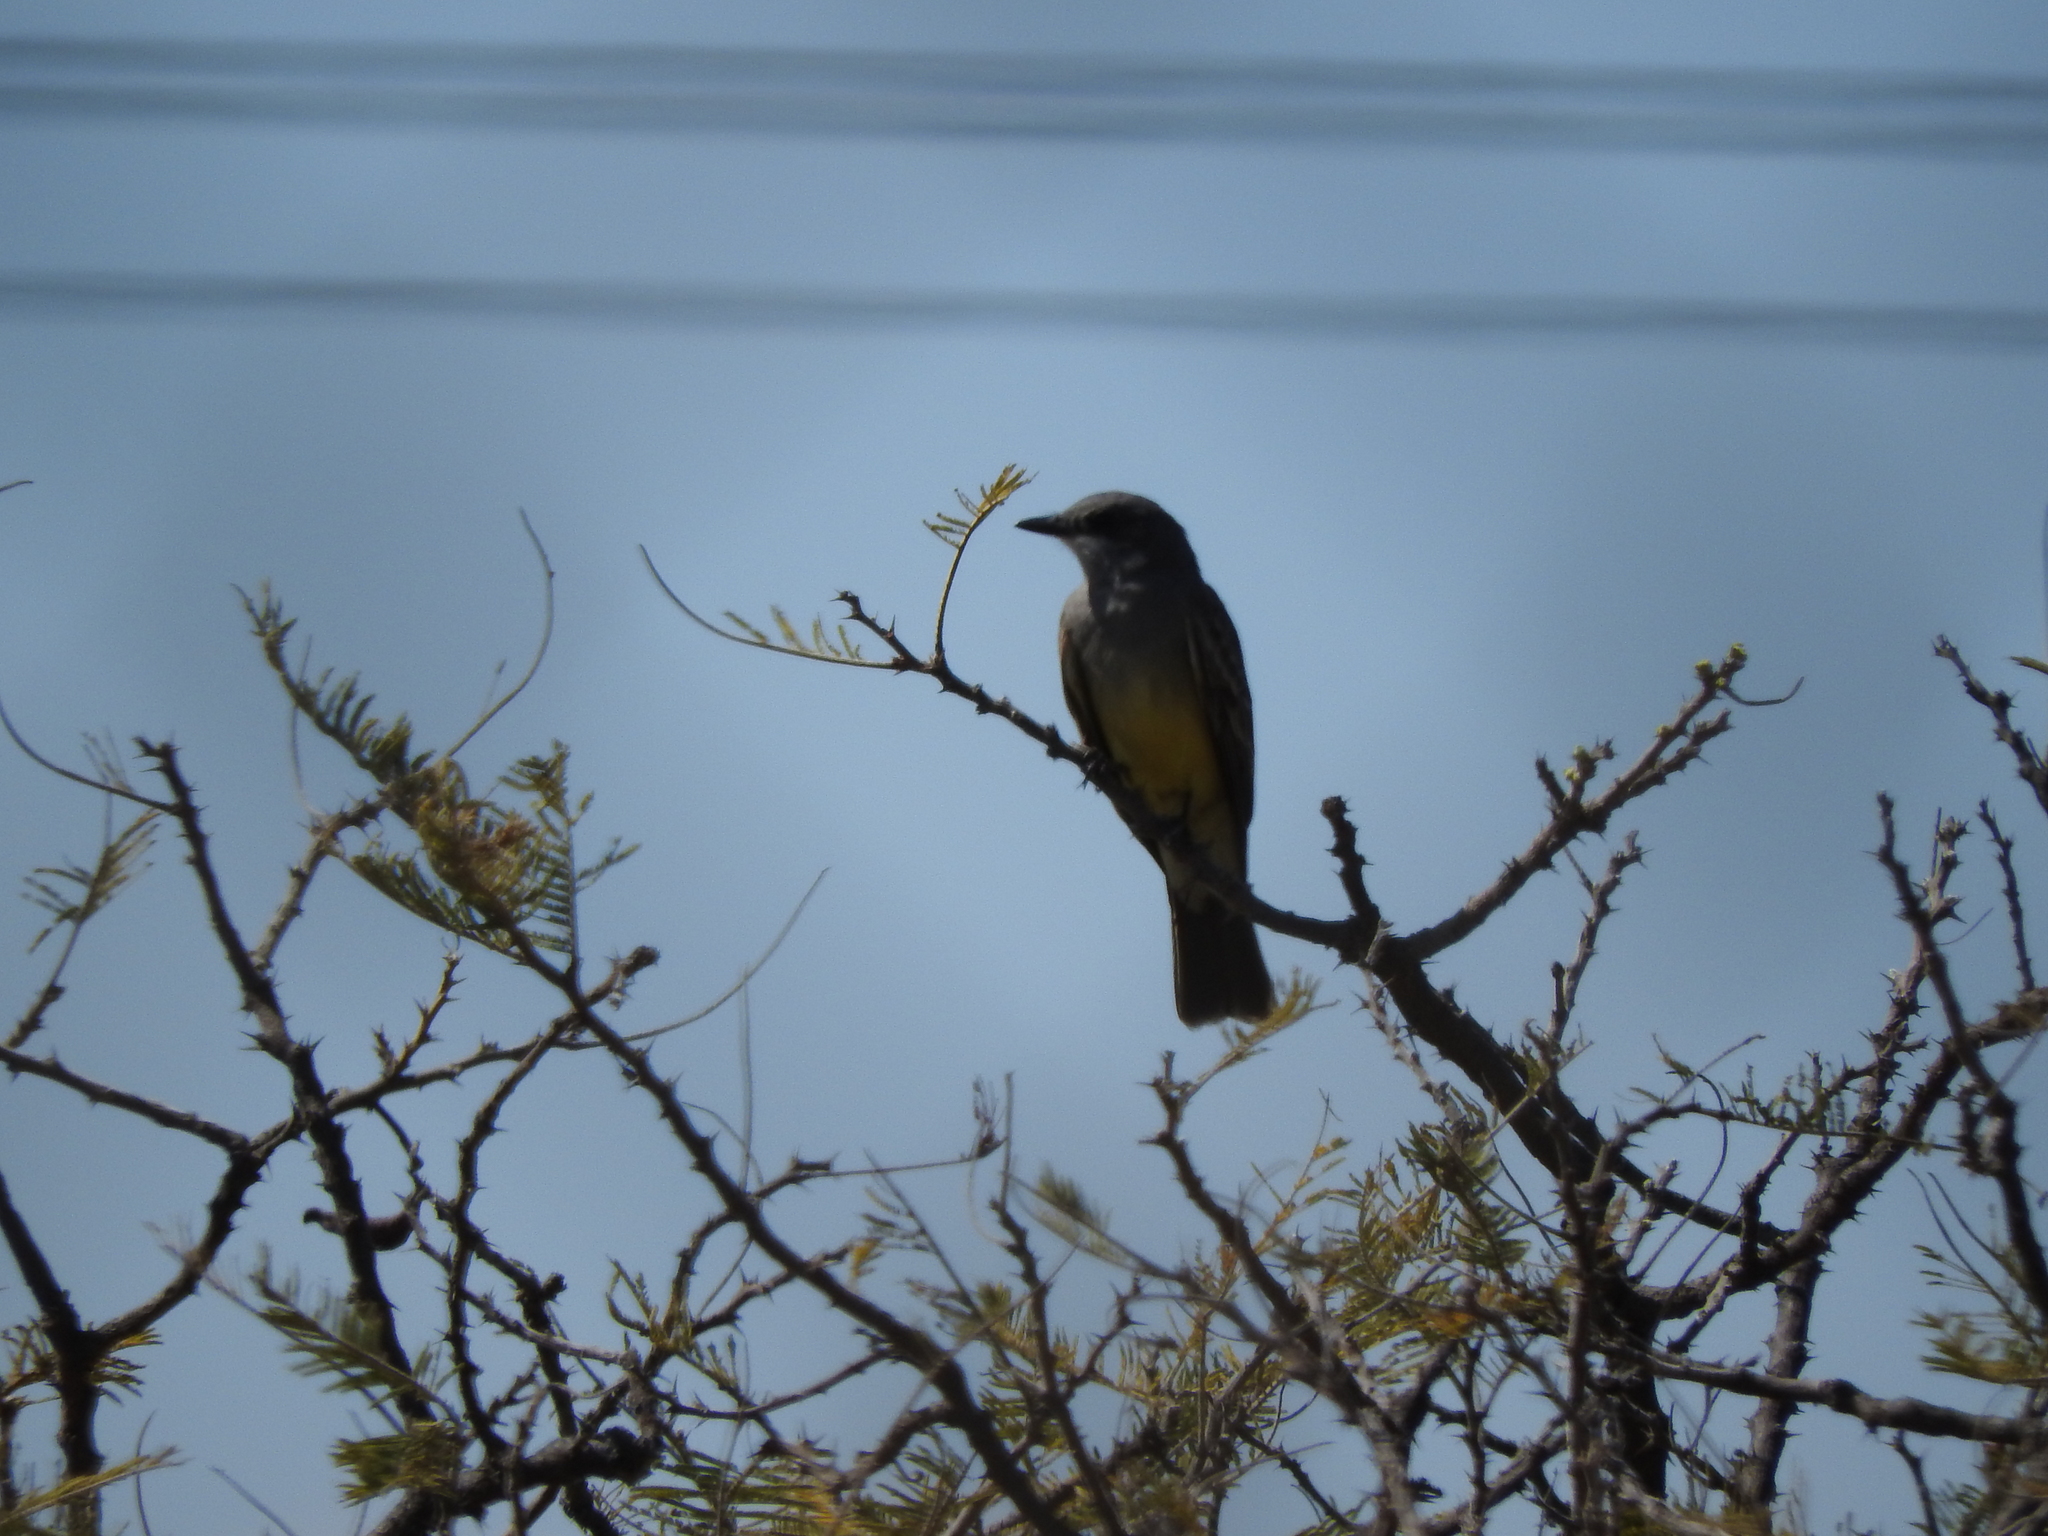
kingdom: Animalia
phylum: Chordata
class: Aves
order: Passeriformes
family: Tyrannidae
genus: Tyrannus
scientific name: Tyrannus vociferans
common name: Cassin's kingbird
